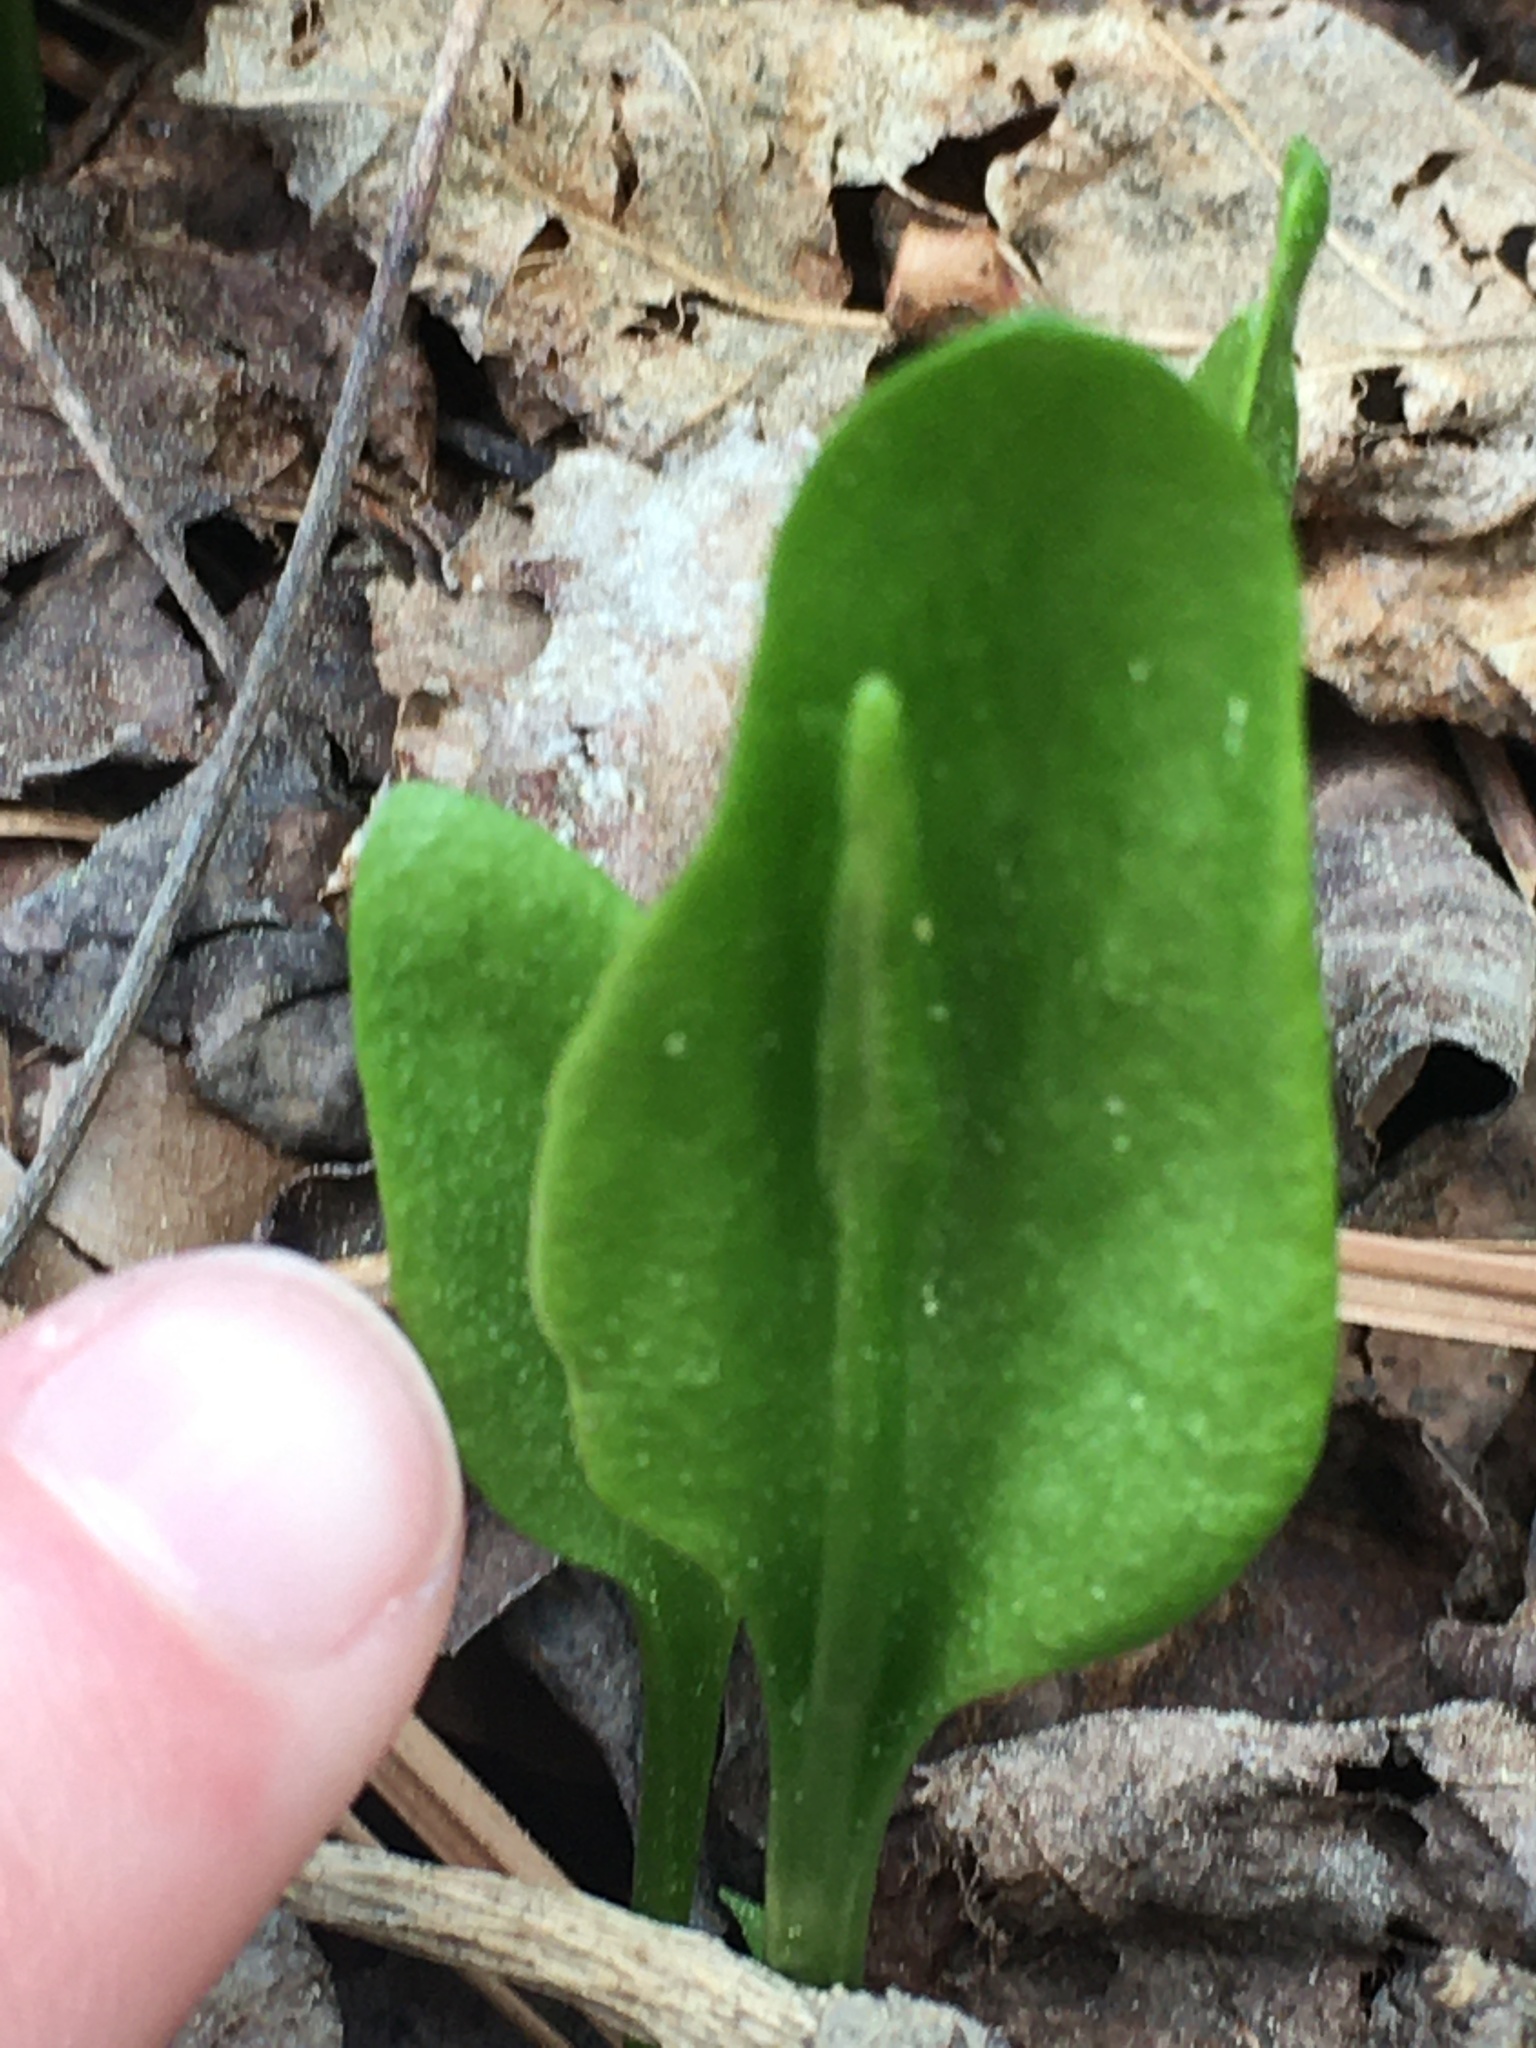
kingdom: Plantae
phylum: Tracheophyta
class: Polypodiopsida
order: Ophioglossales
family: Ophioglossaceae
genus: Ophioglossum
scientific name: Ophioglossum vulgatum
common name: Adder's-tongue
